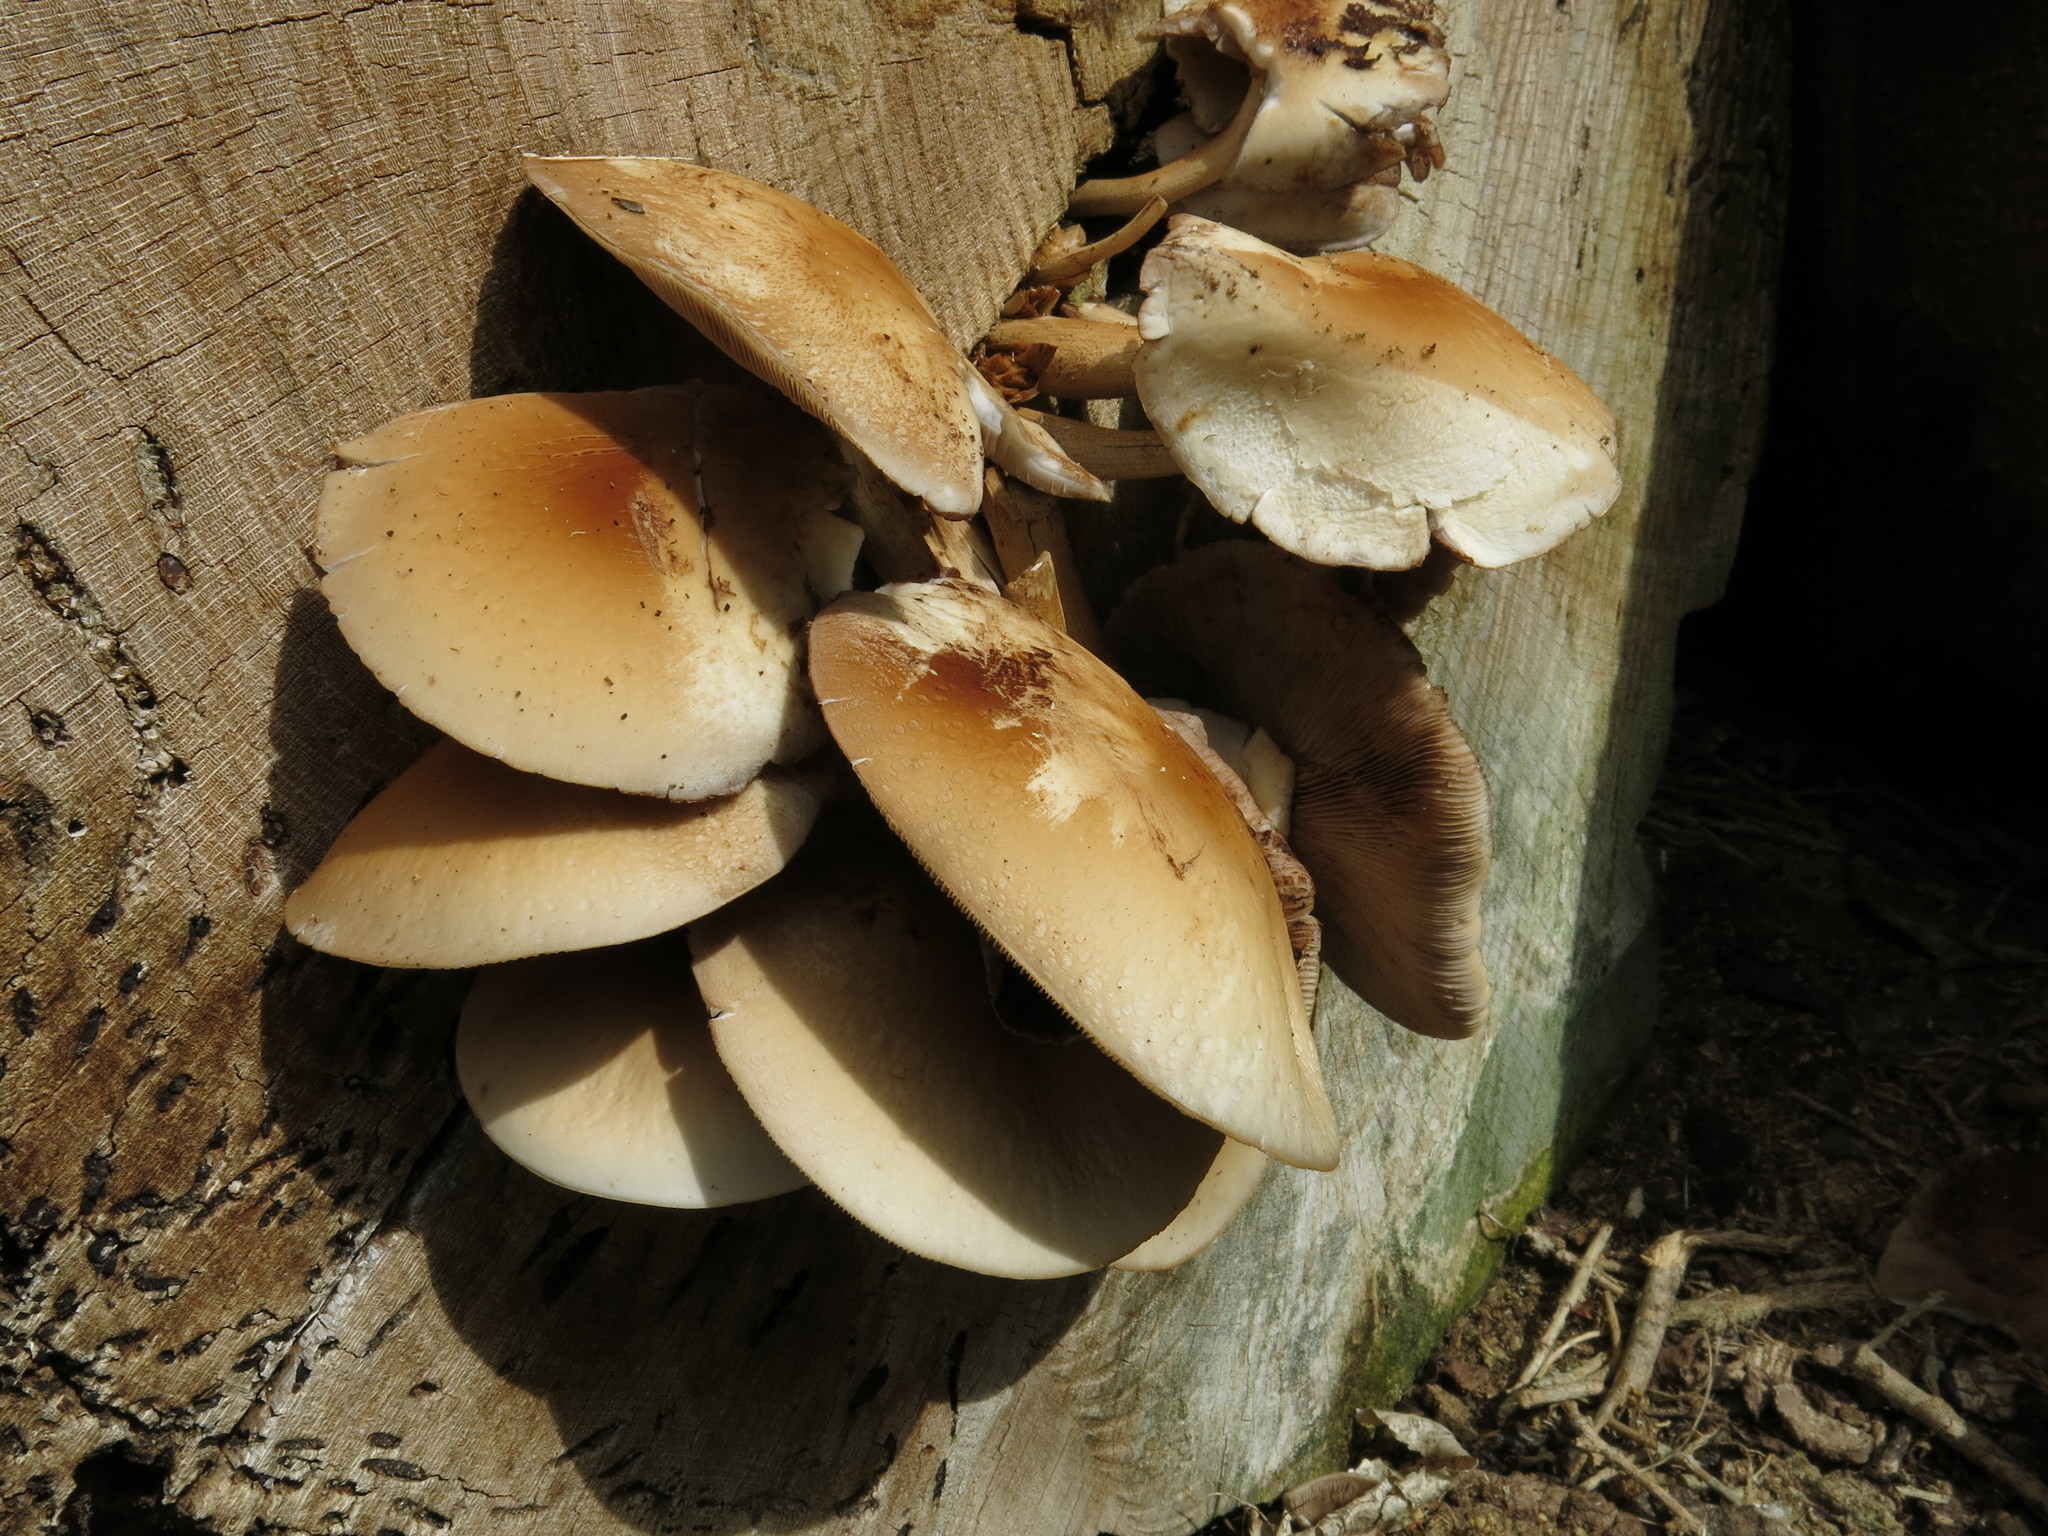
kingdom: Fungi
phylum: Basidiomycota
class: Agaricomycetes
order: Agaricales
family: Tubariaceae
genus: Cyclocybe
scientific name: Cyclocybe parasitica
